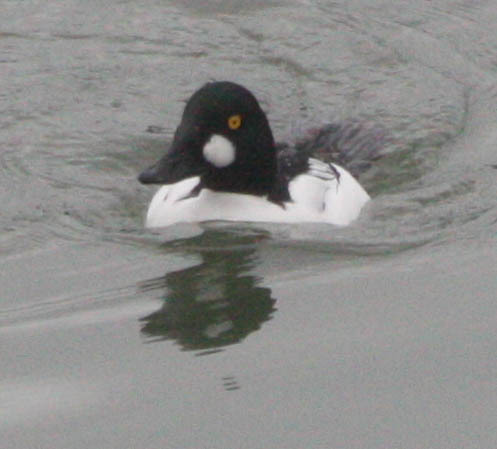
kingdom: Animalia
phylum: Chordata
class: Aves
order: Anseriformes
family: Anatidae
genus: Bucephala
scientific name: Bucephala clangula
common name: Common goldeneye
